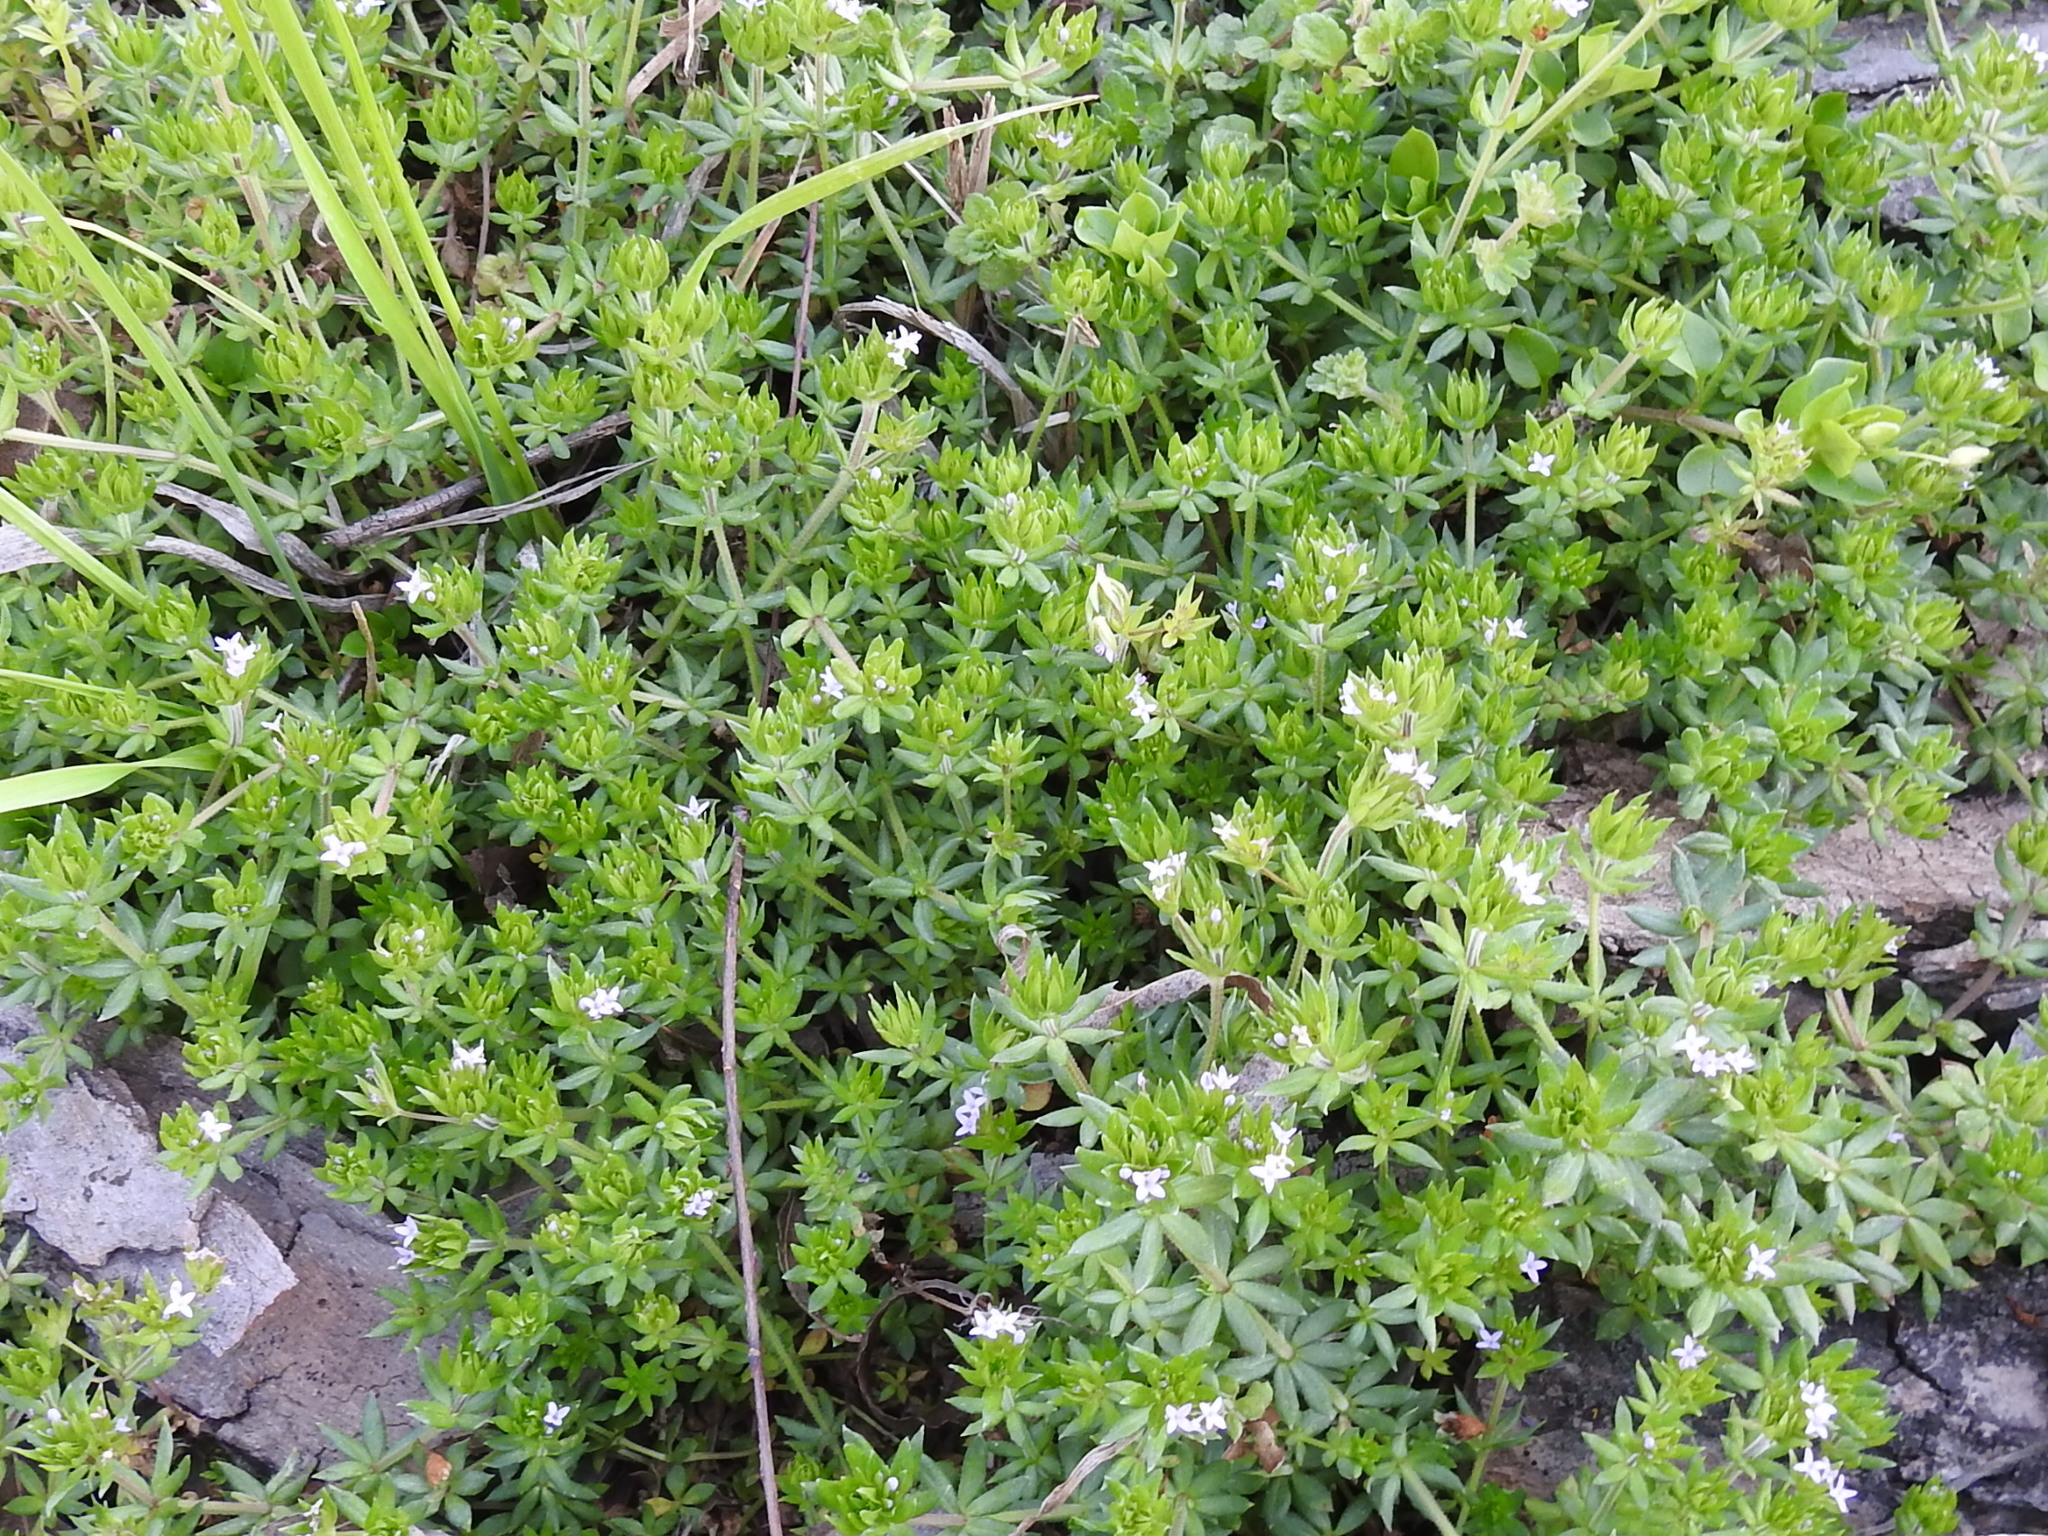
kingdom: Plantae
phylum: Tracheophyta
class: Magnoliopsida
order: Gentianales
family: Rubiaceae
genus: Sherardia
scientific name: Sherardia arvensis
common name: Field madder
